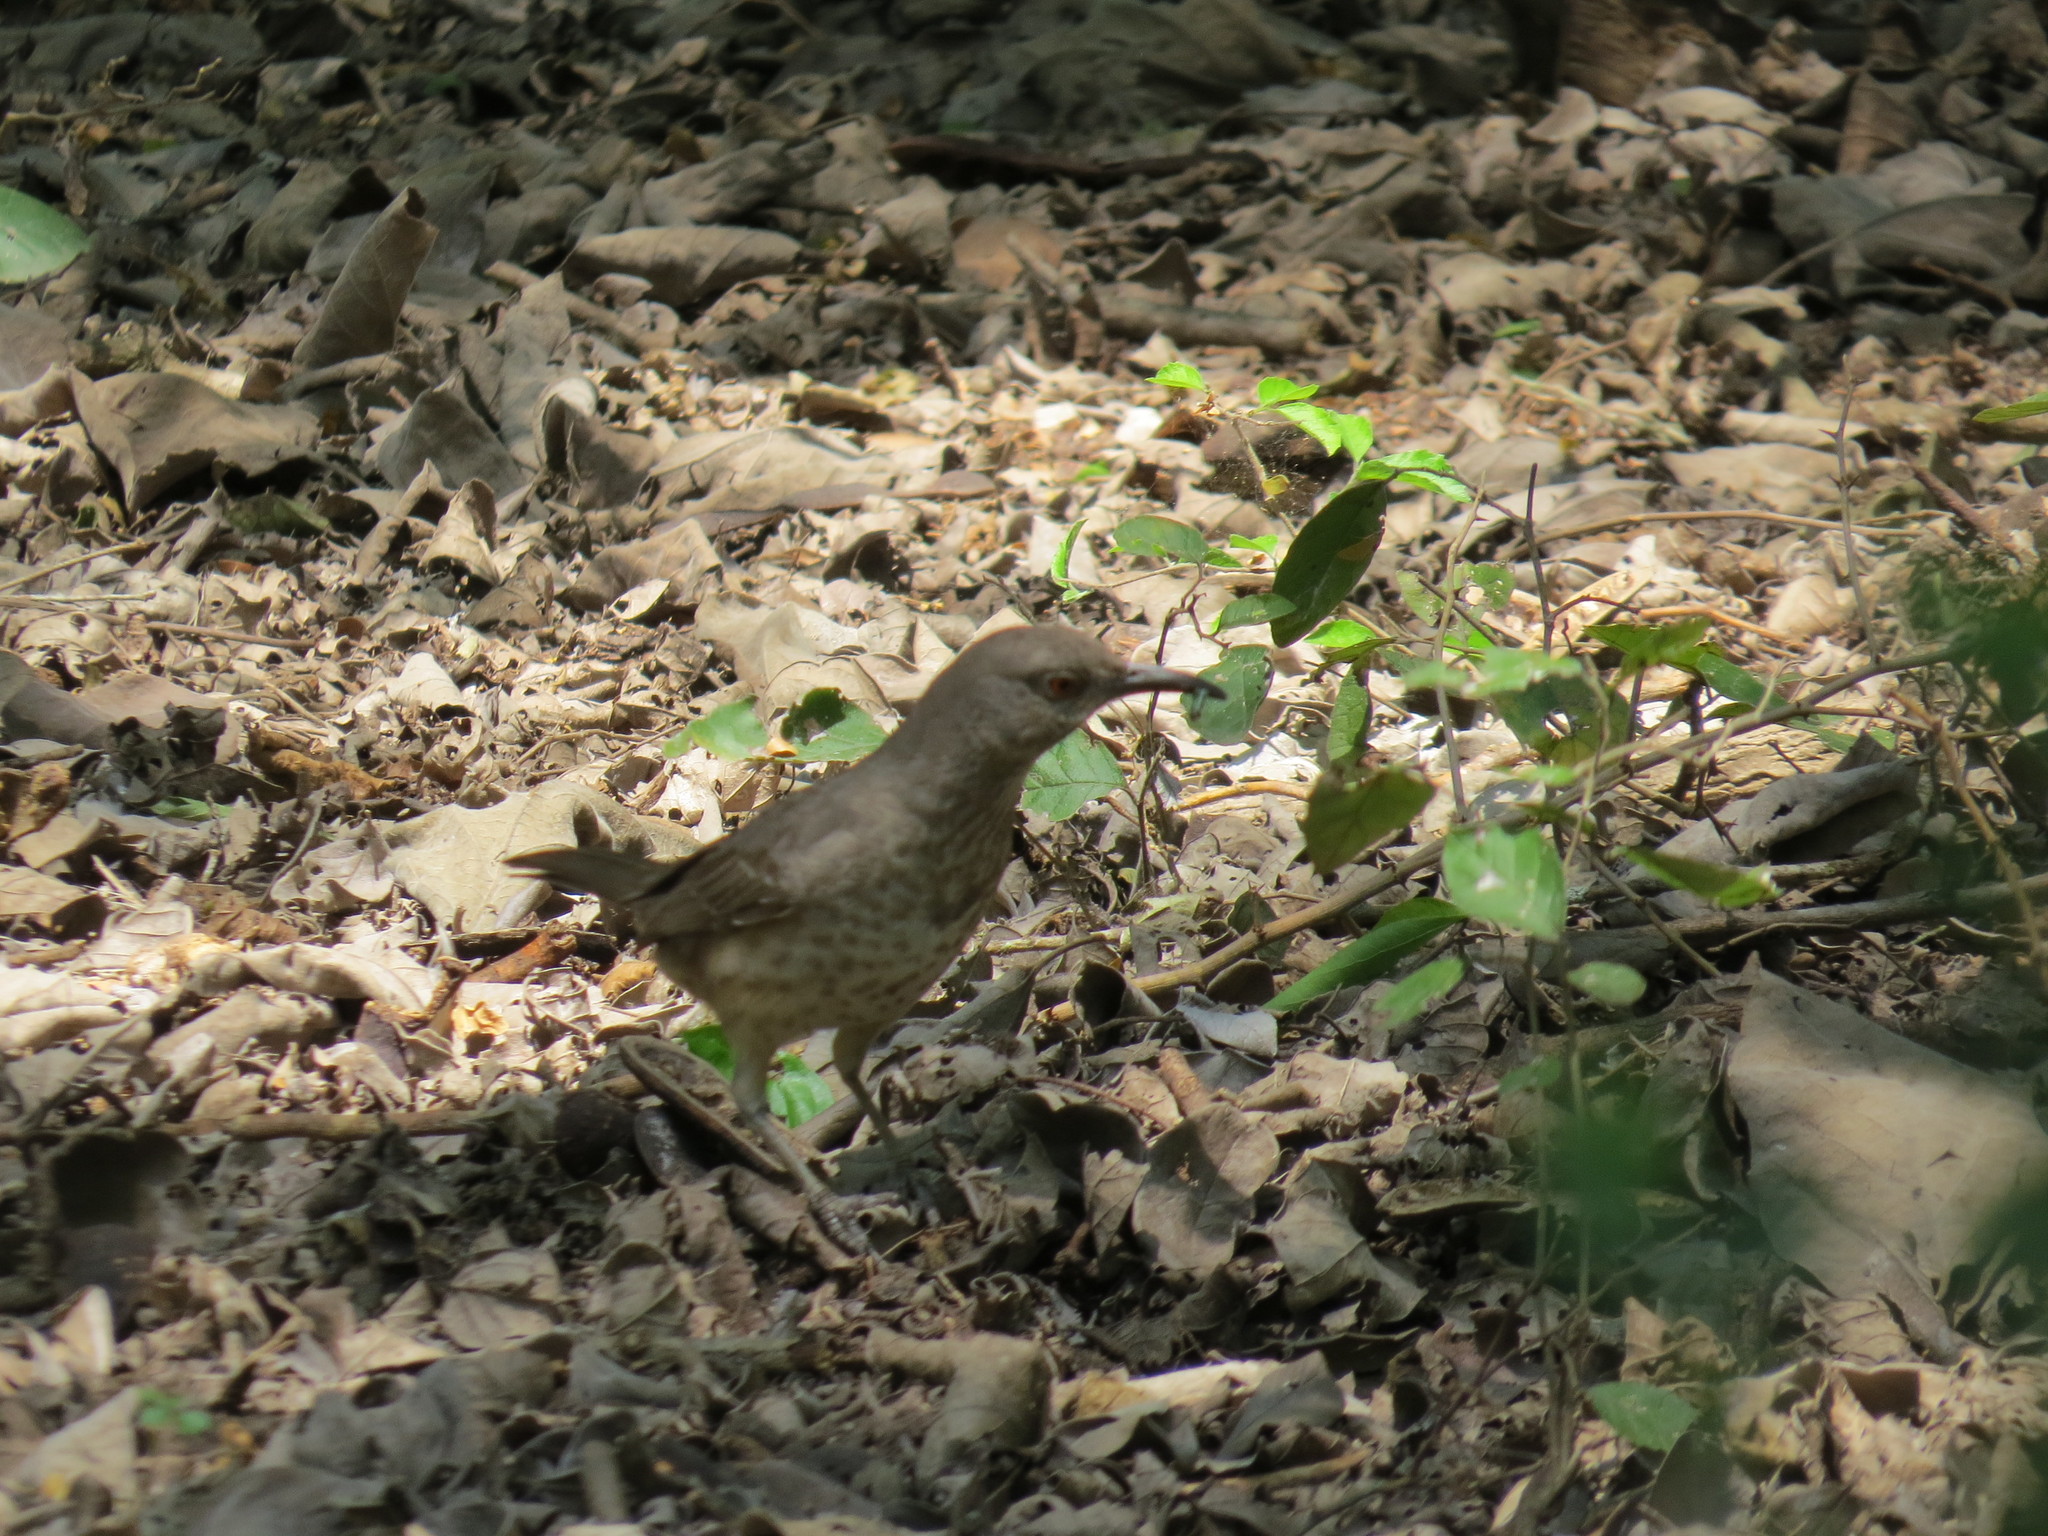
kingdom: Animalia
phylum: Chordata
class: Aves
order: Passeriformes
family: Mimidae
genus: Toxostoma
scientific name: Toxostoma curvirostre
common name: Curve-billed thrasher
